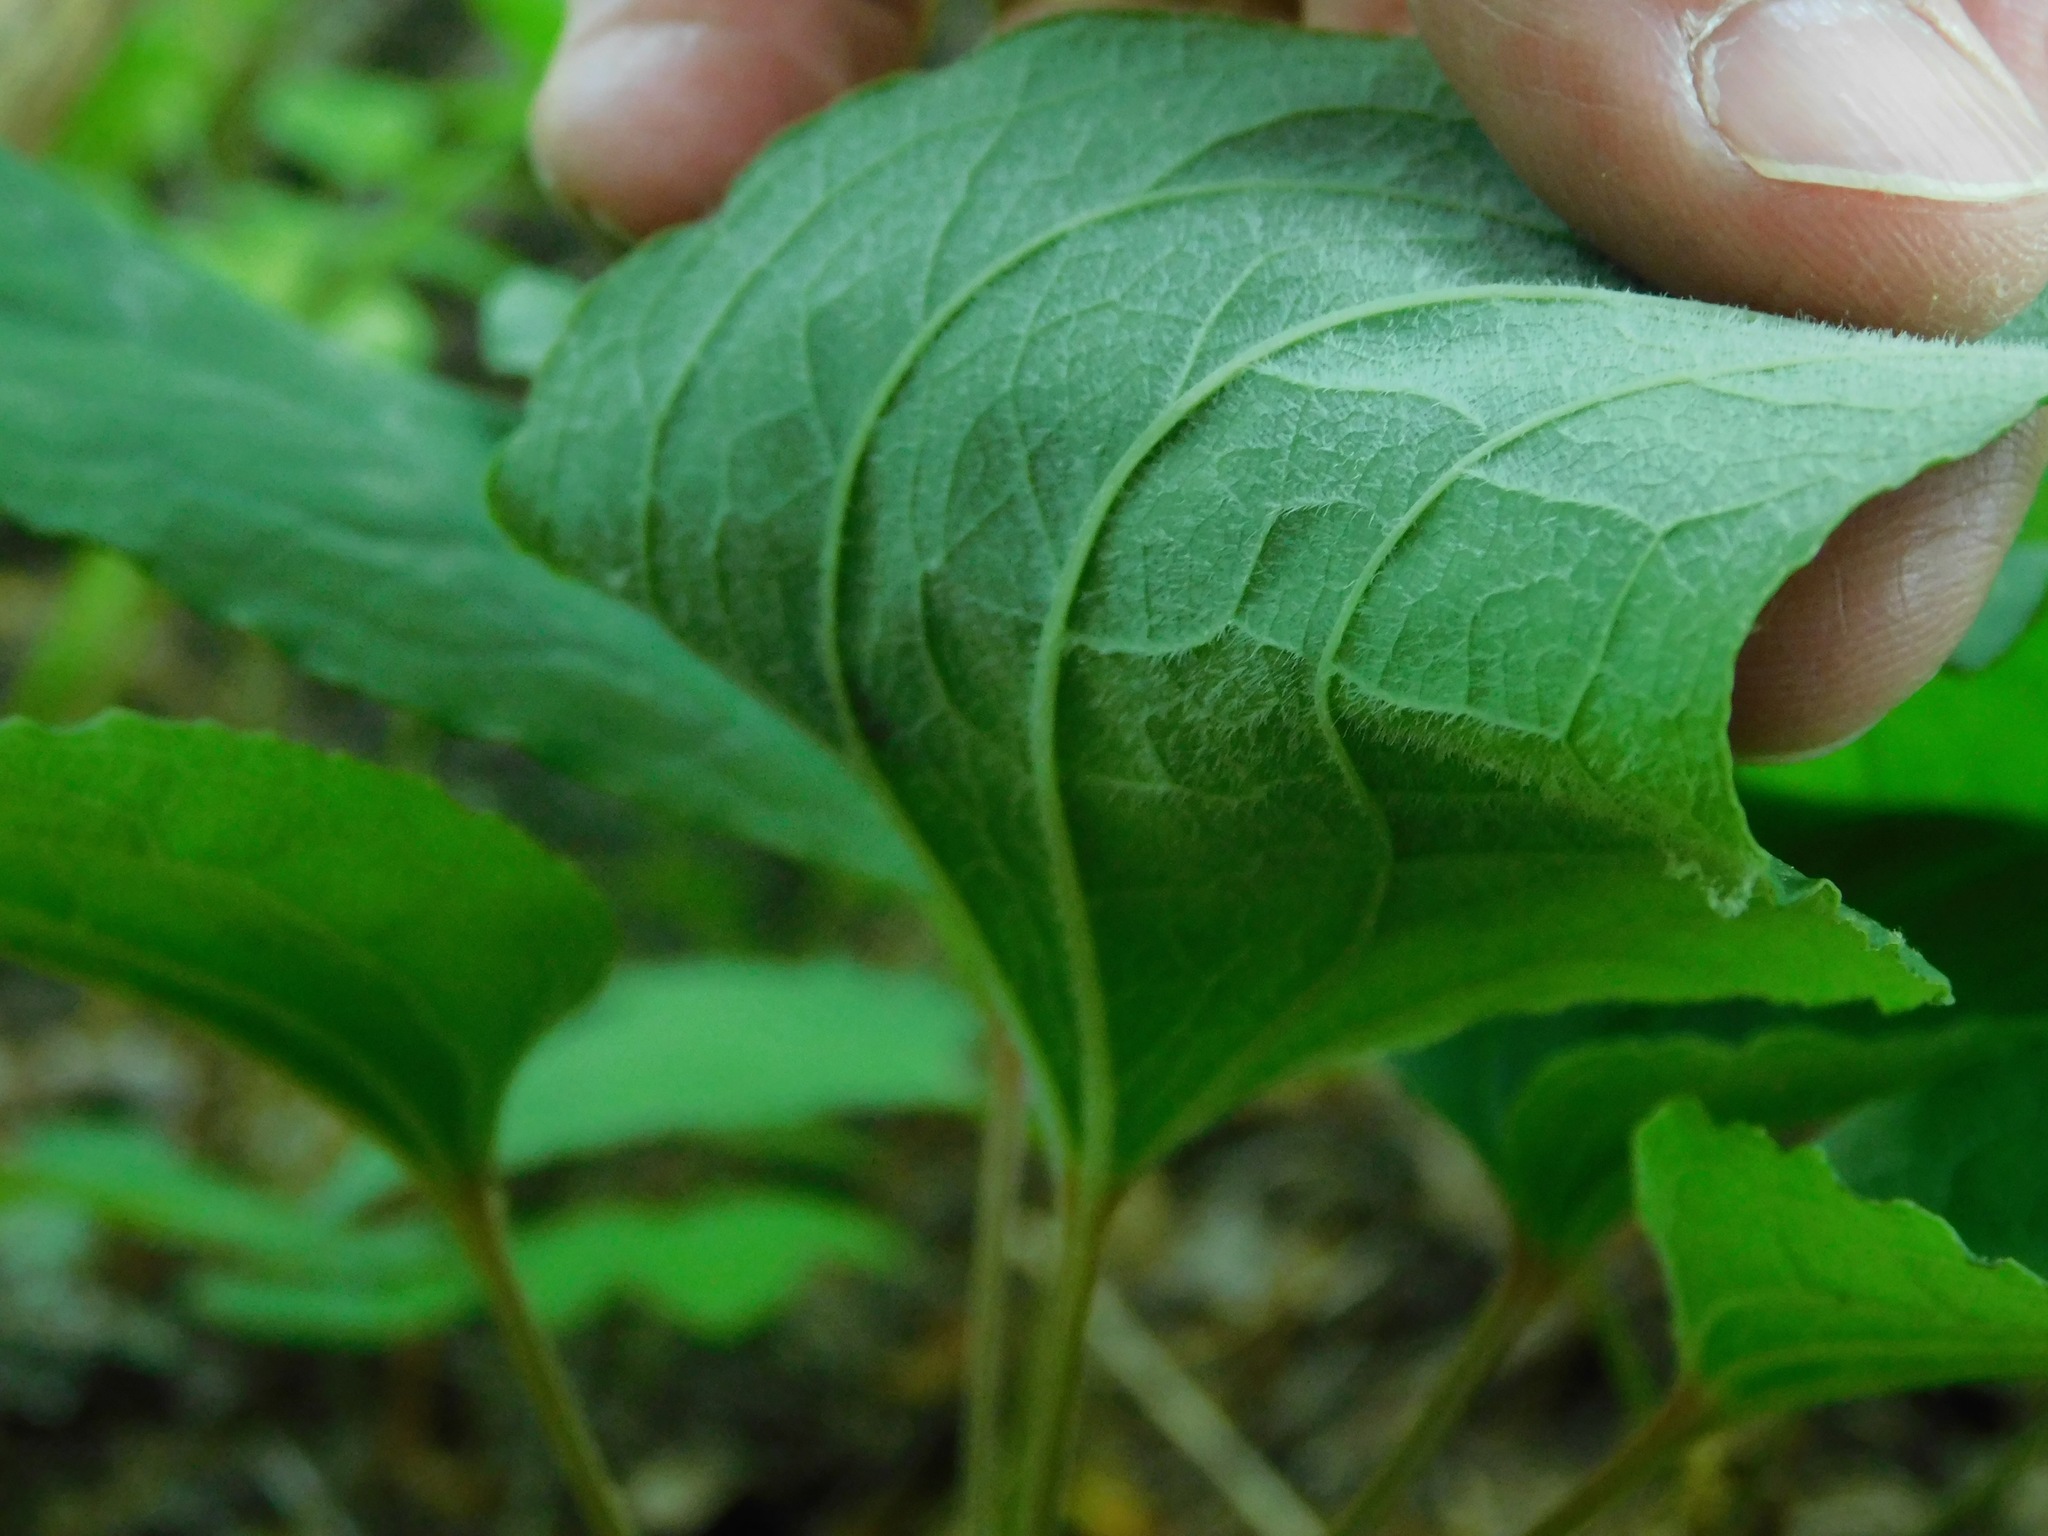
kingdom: Plantae
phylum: Tracheophyta
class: Liliopsida
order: Liliales
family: Smilacaceae
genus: Smilax
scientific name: Smilax hugeri
